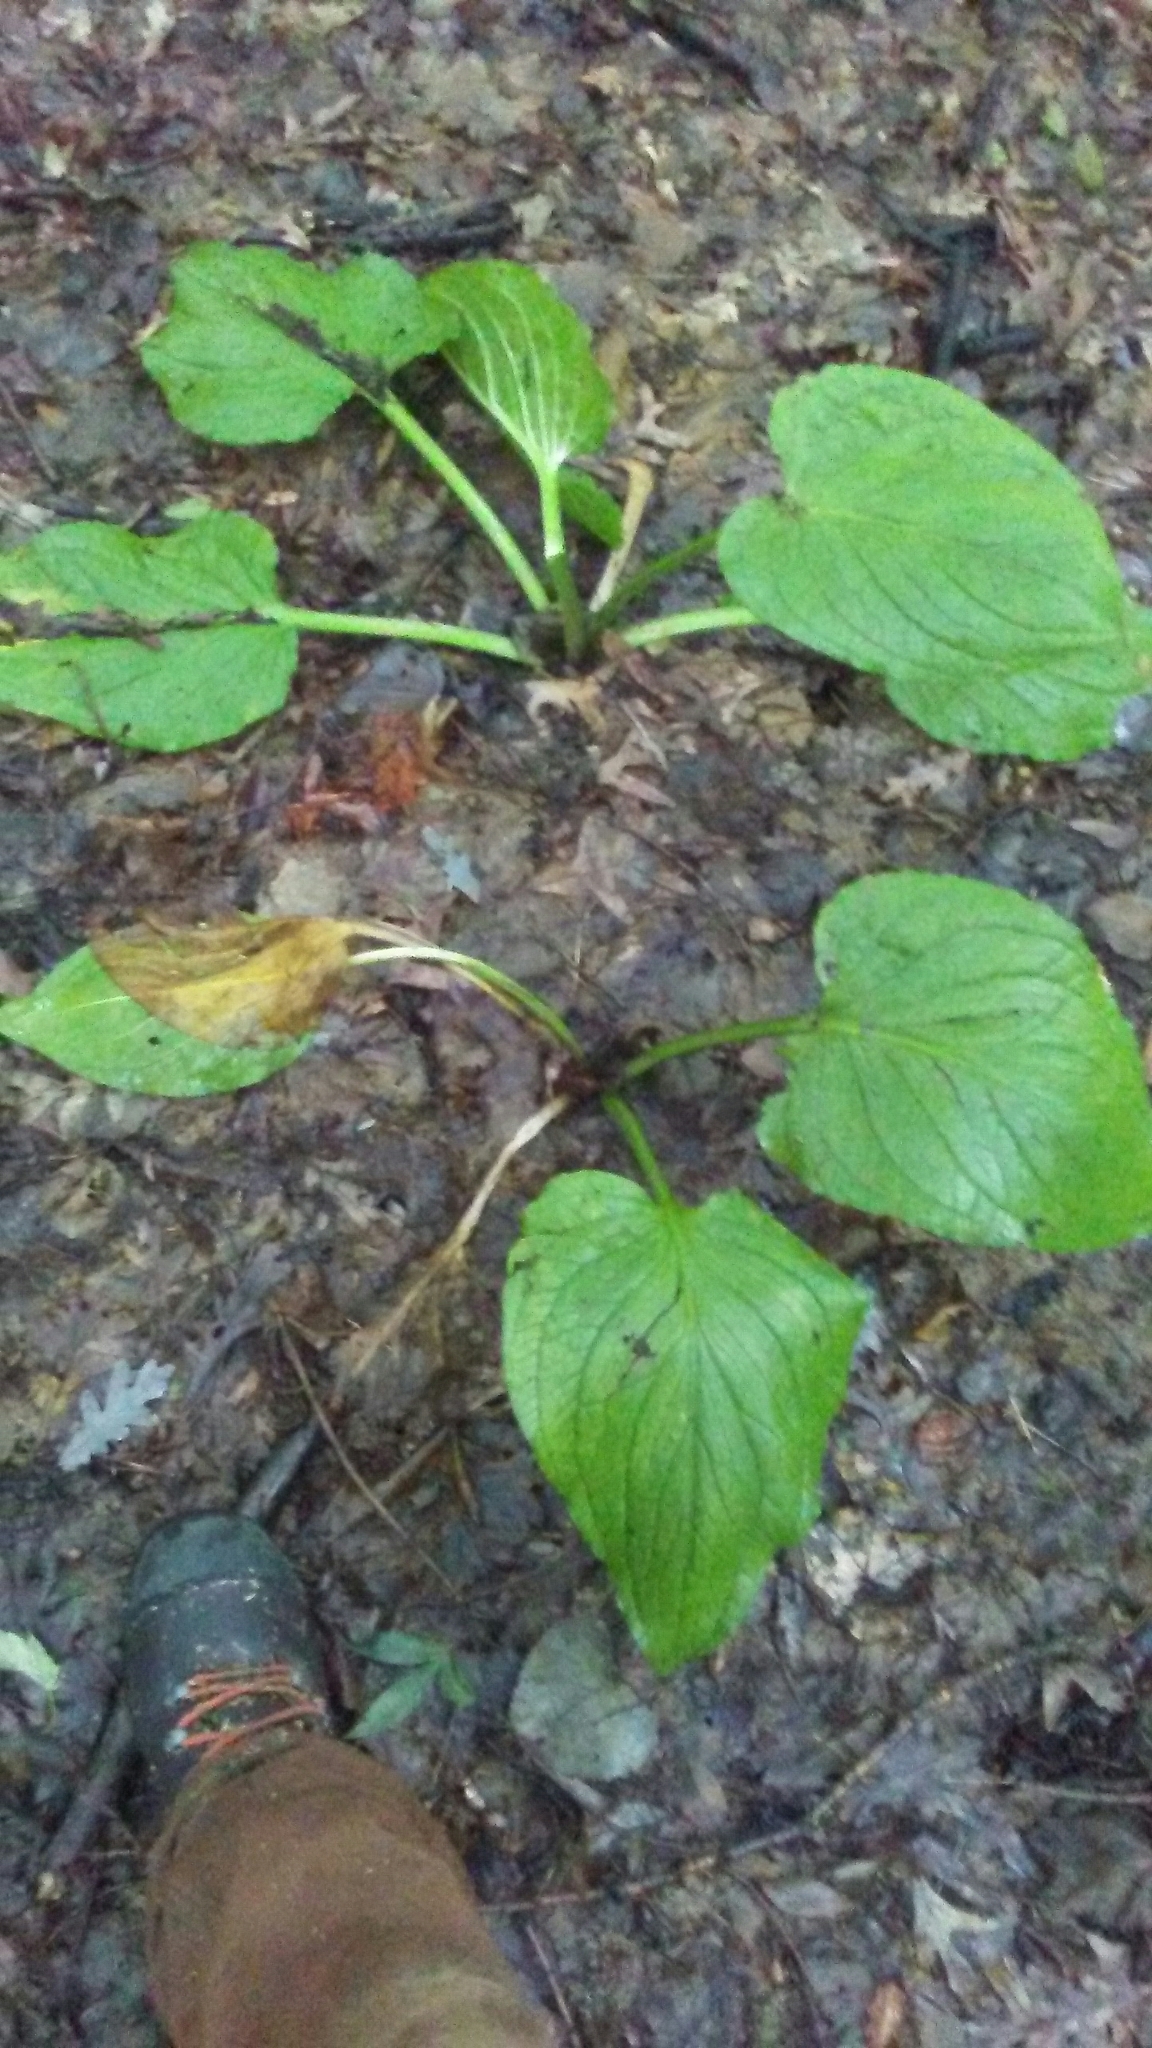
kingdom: Plantae
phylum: Tracheophyta
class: Liliopsida
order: Alismatales
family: Araceae
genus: Symplocarpus
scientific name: Symplocarpus foetidus
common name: Eastern skunk cabbage
